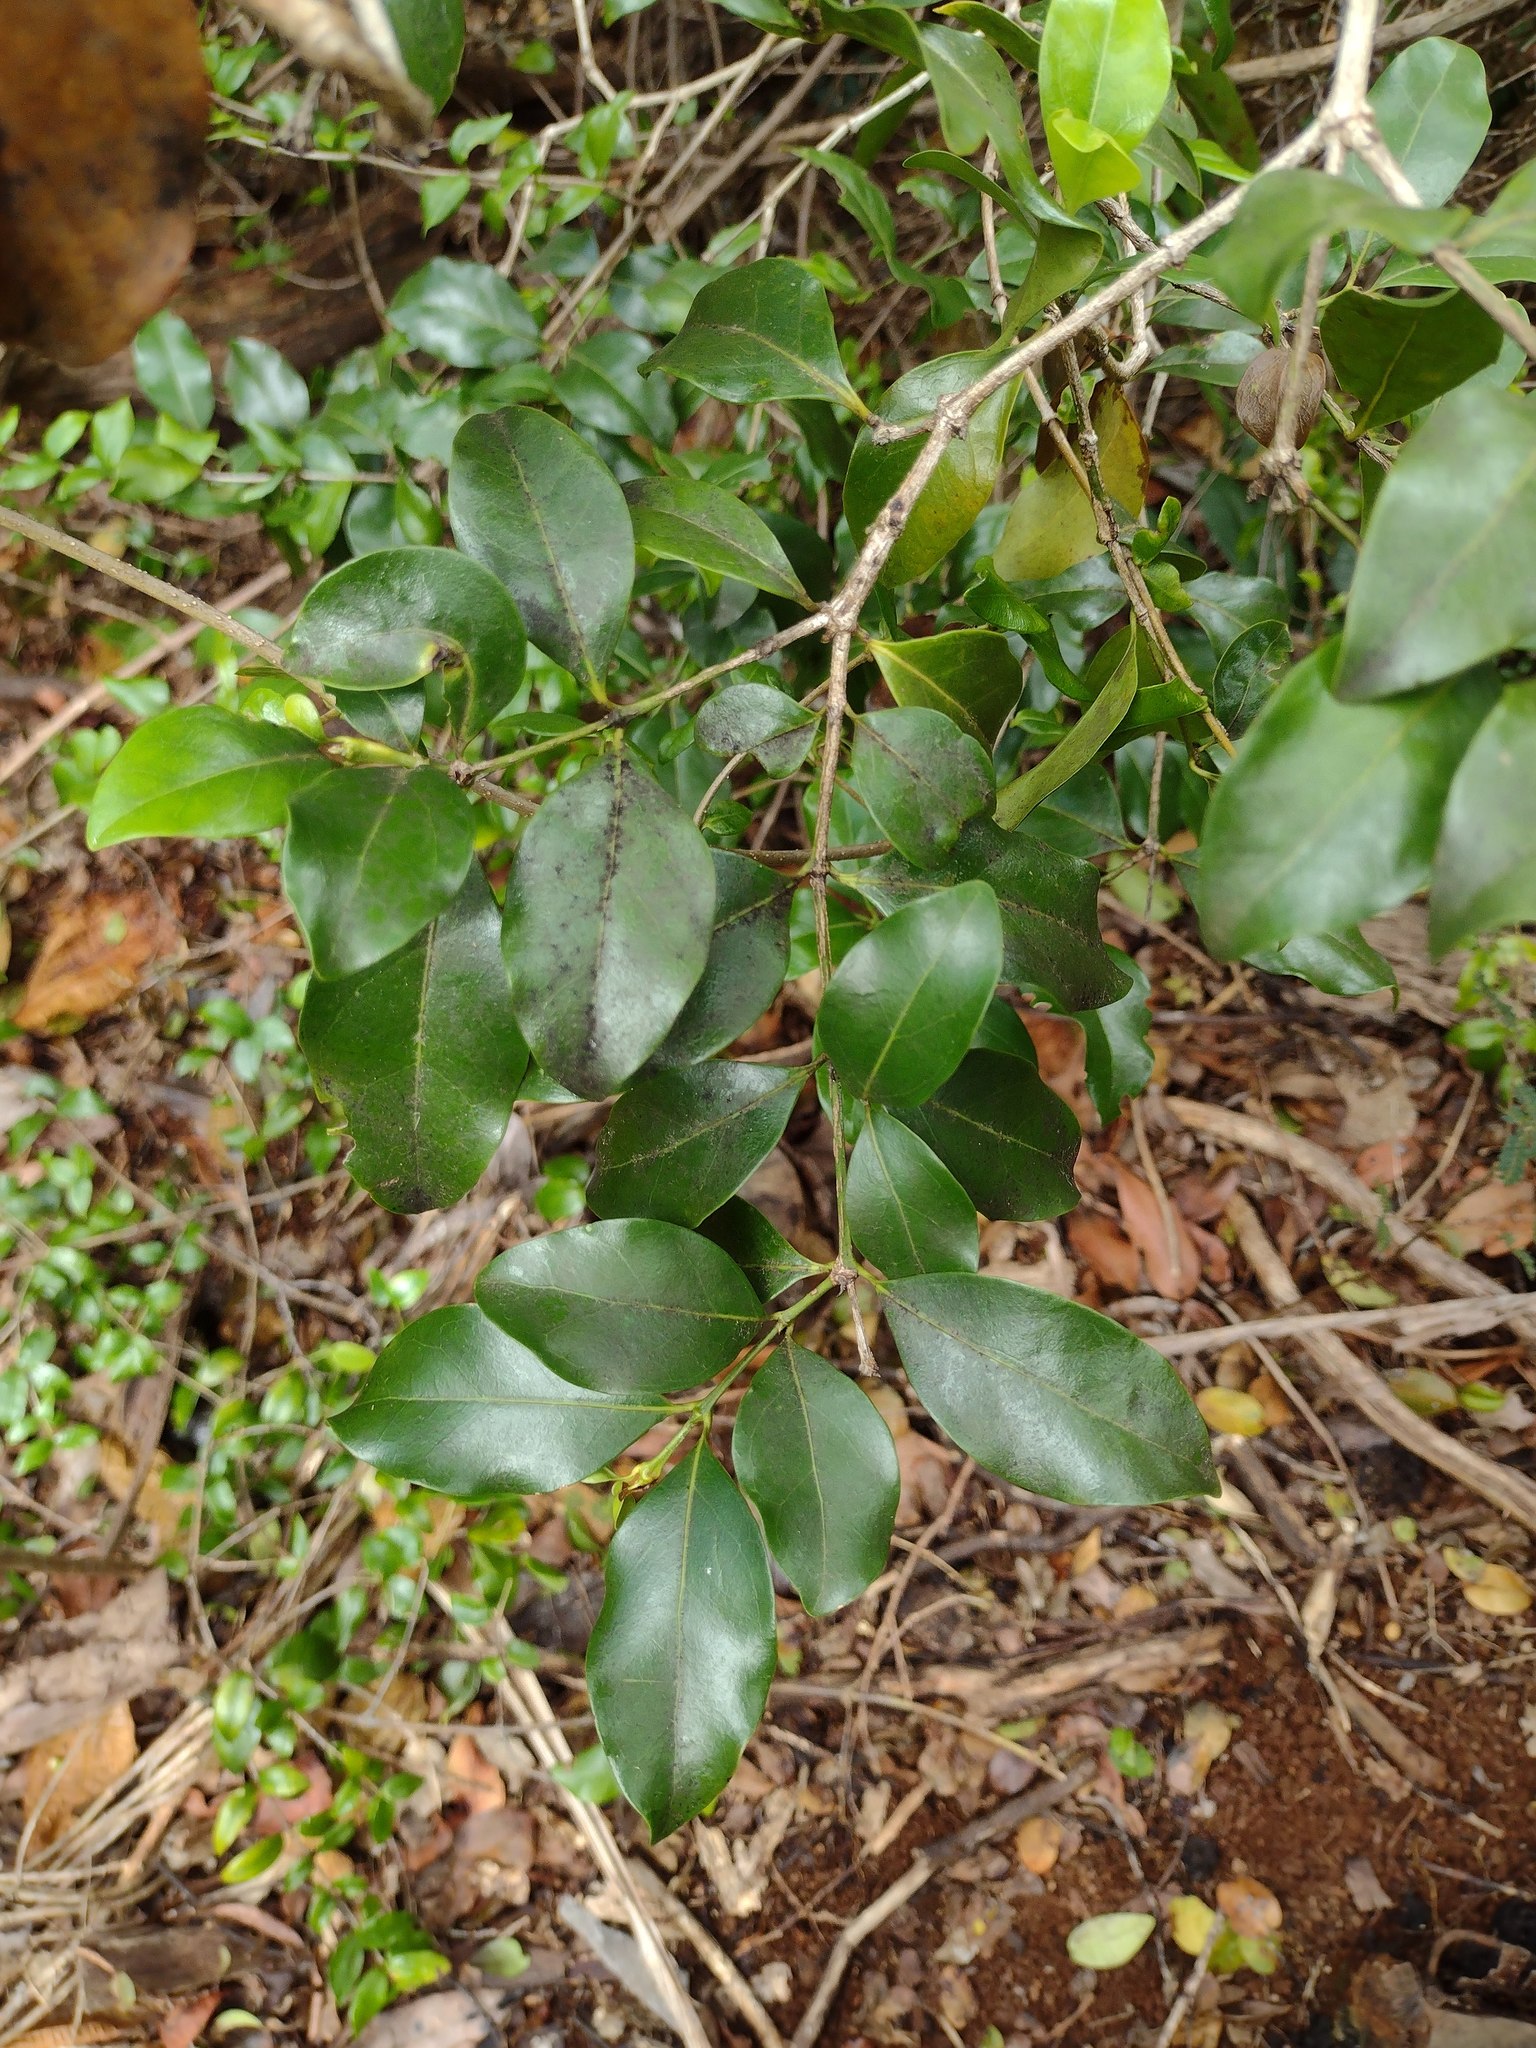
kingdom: Plantae
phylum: Tracheophyta
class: Magnoliopsida
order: Gentianales
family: Rubiaceae
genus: Psydrax
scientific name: Psydrax odoratus
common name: Alahe'e
